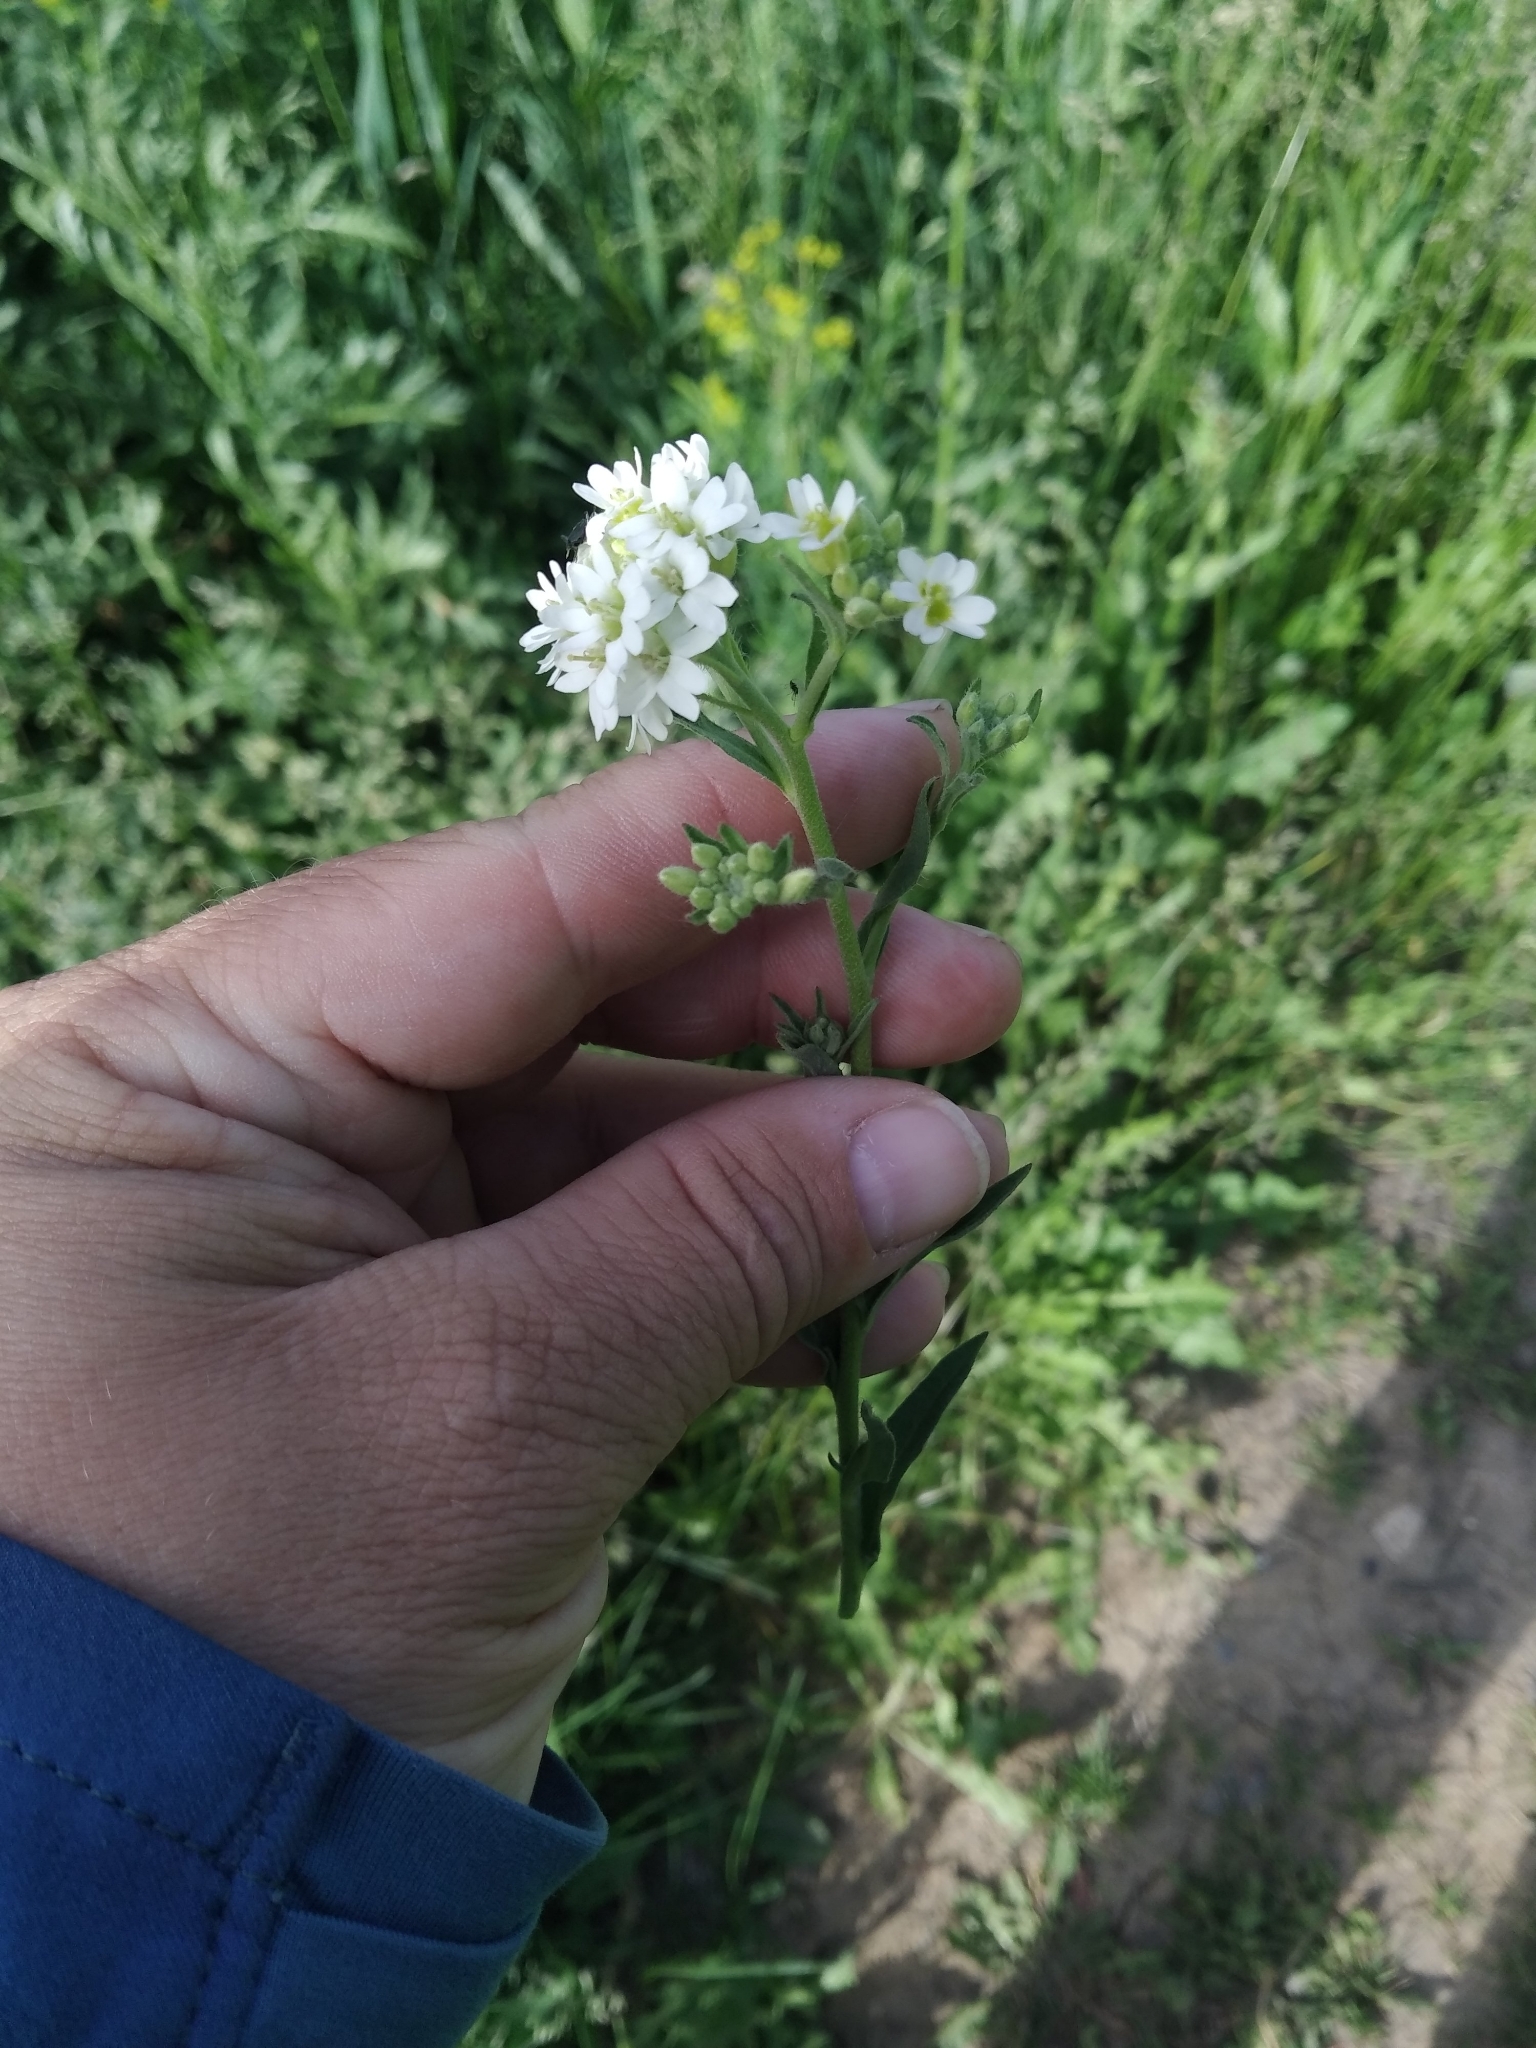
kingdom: Plantae
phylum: Tracheophyta
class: Magnoliopsida
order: Brassicales
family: Brassicaceae
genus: Berteroa
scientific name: Berteroa incana
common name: Hoary alison
